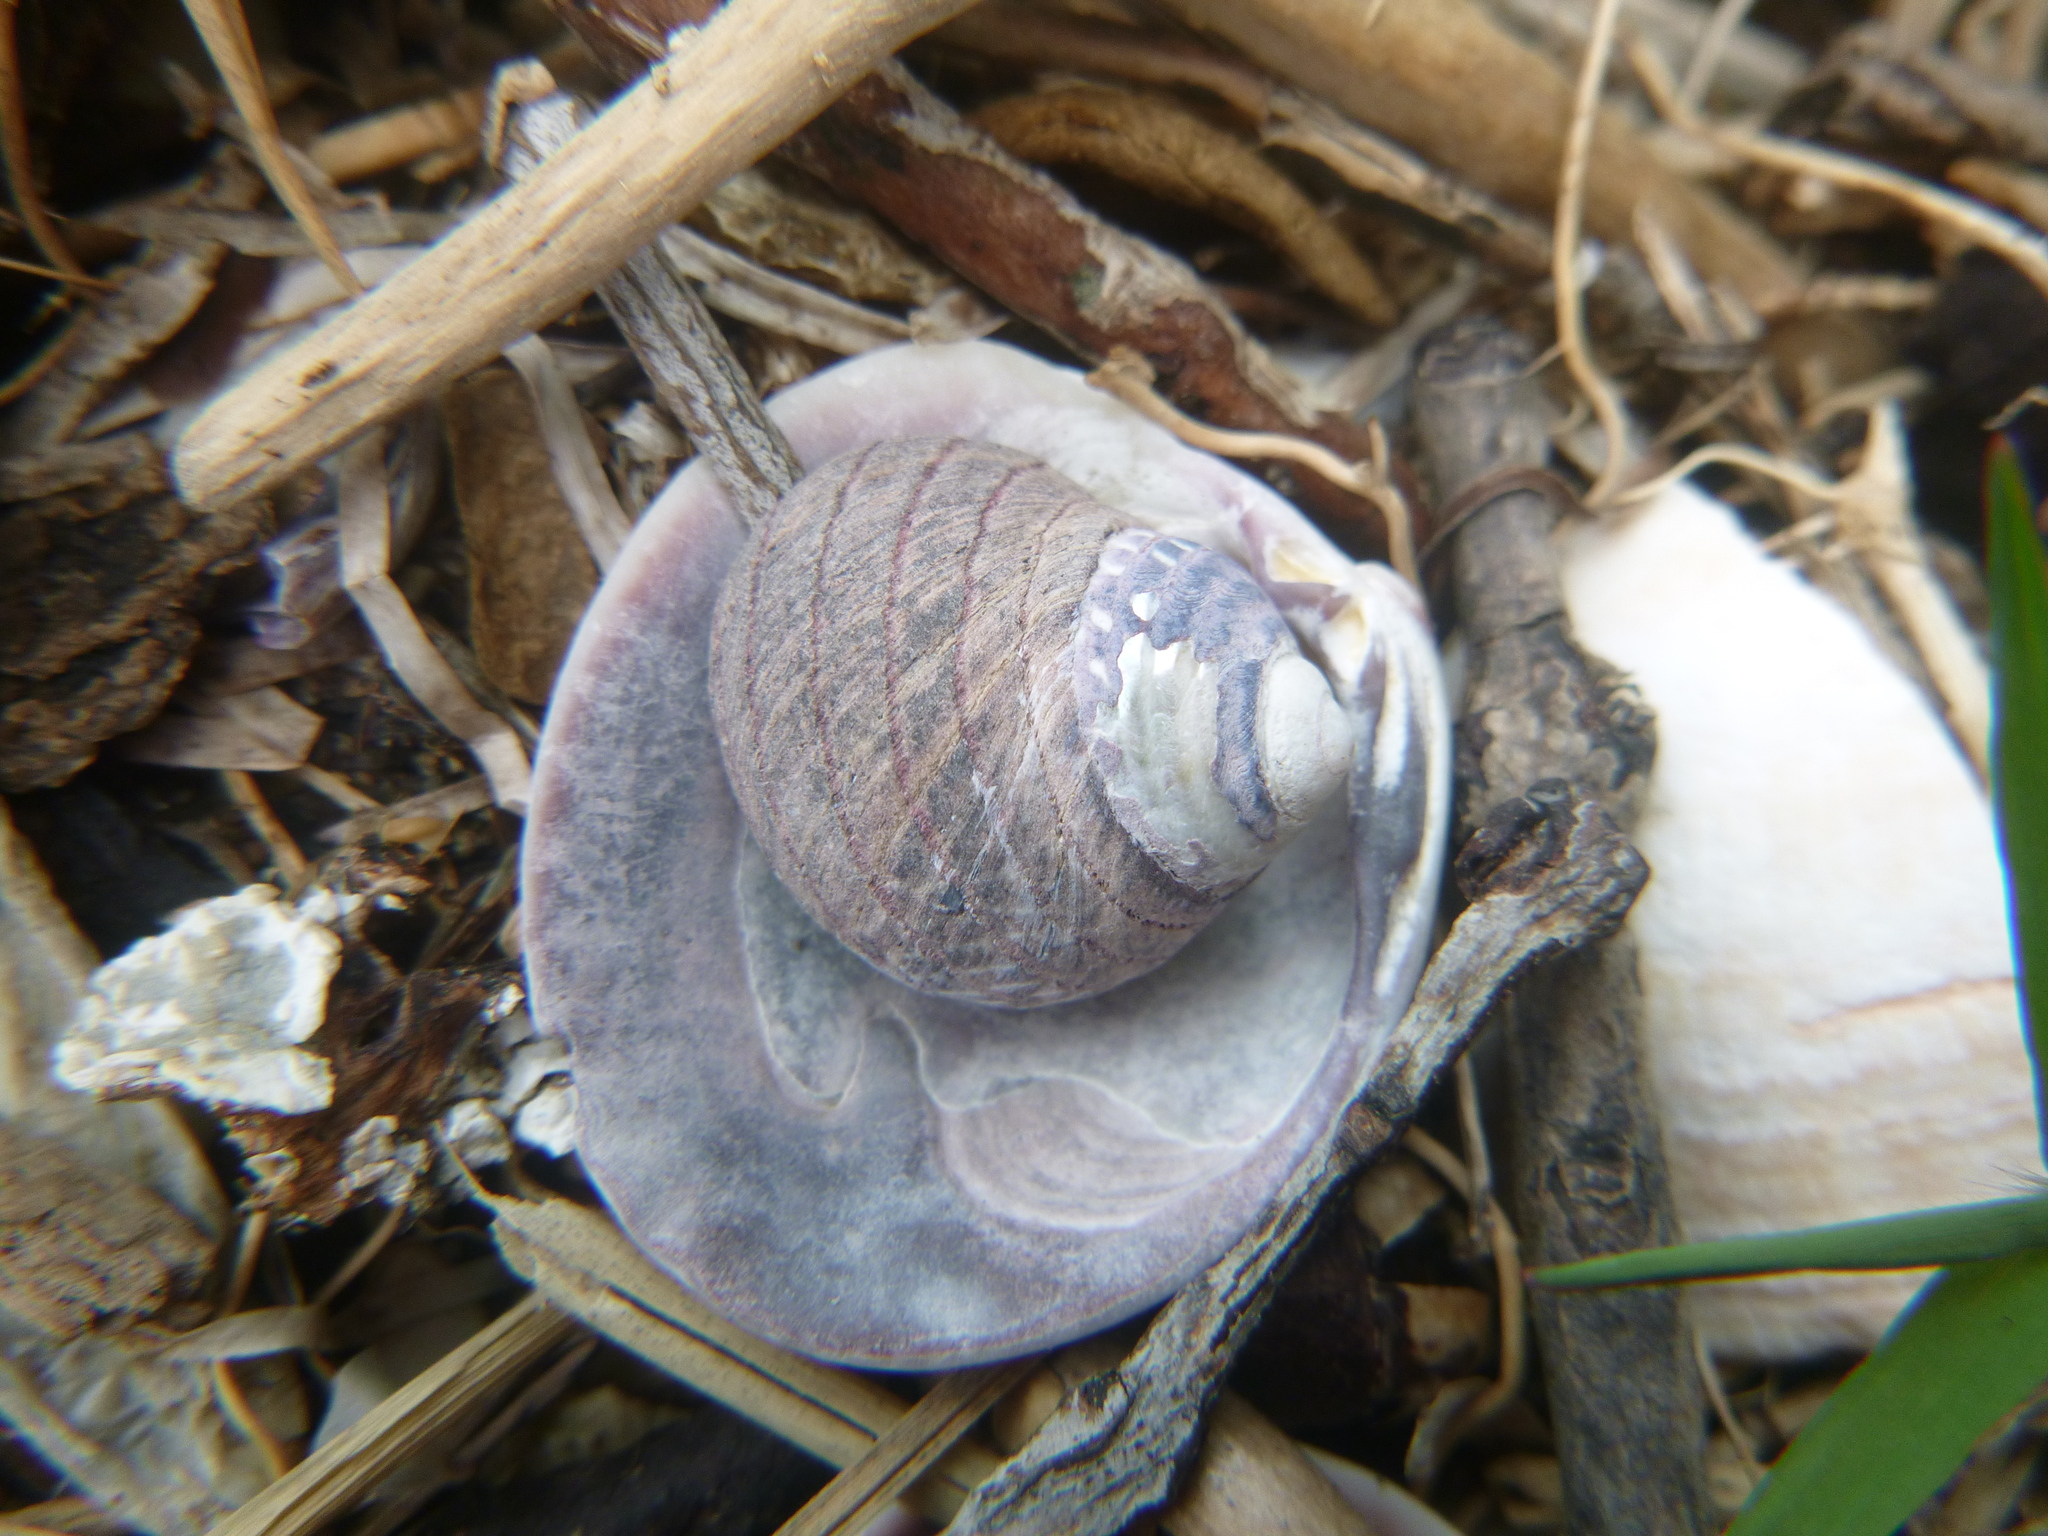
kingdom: Animalia
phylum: Mollusca
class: Gastropoda
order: Trochida
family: Trochidae
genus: Diloma
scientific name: Diloma aethiops
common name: Scorched monodont
